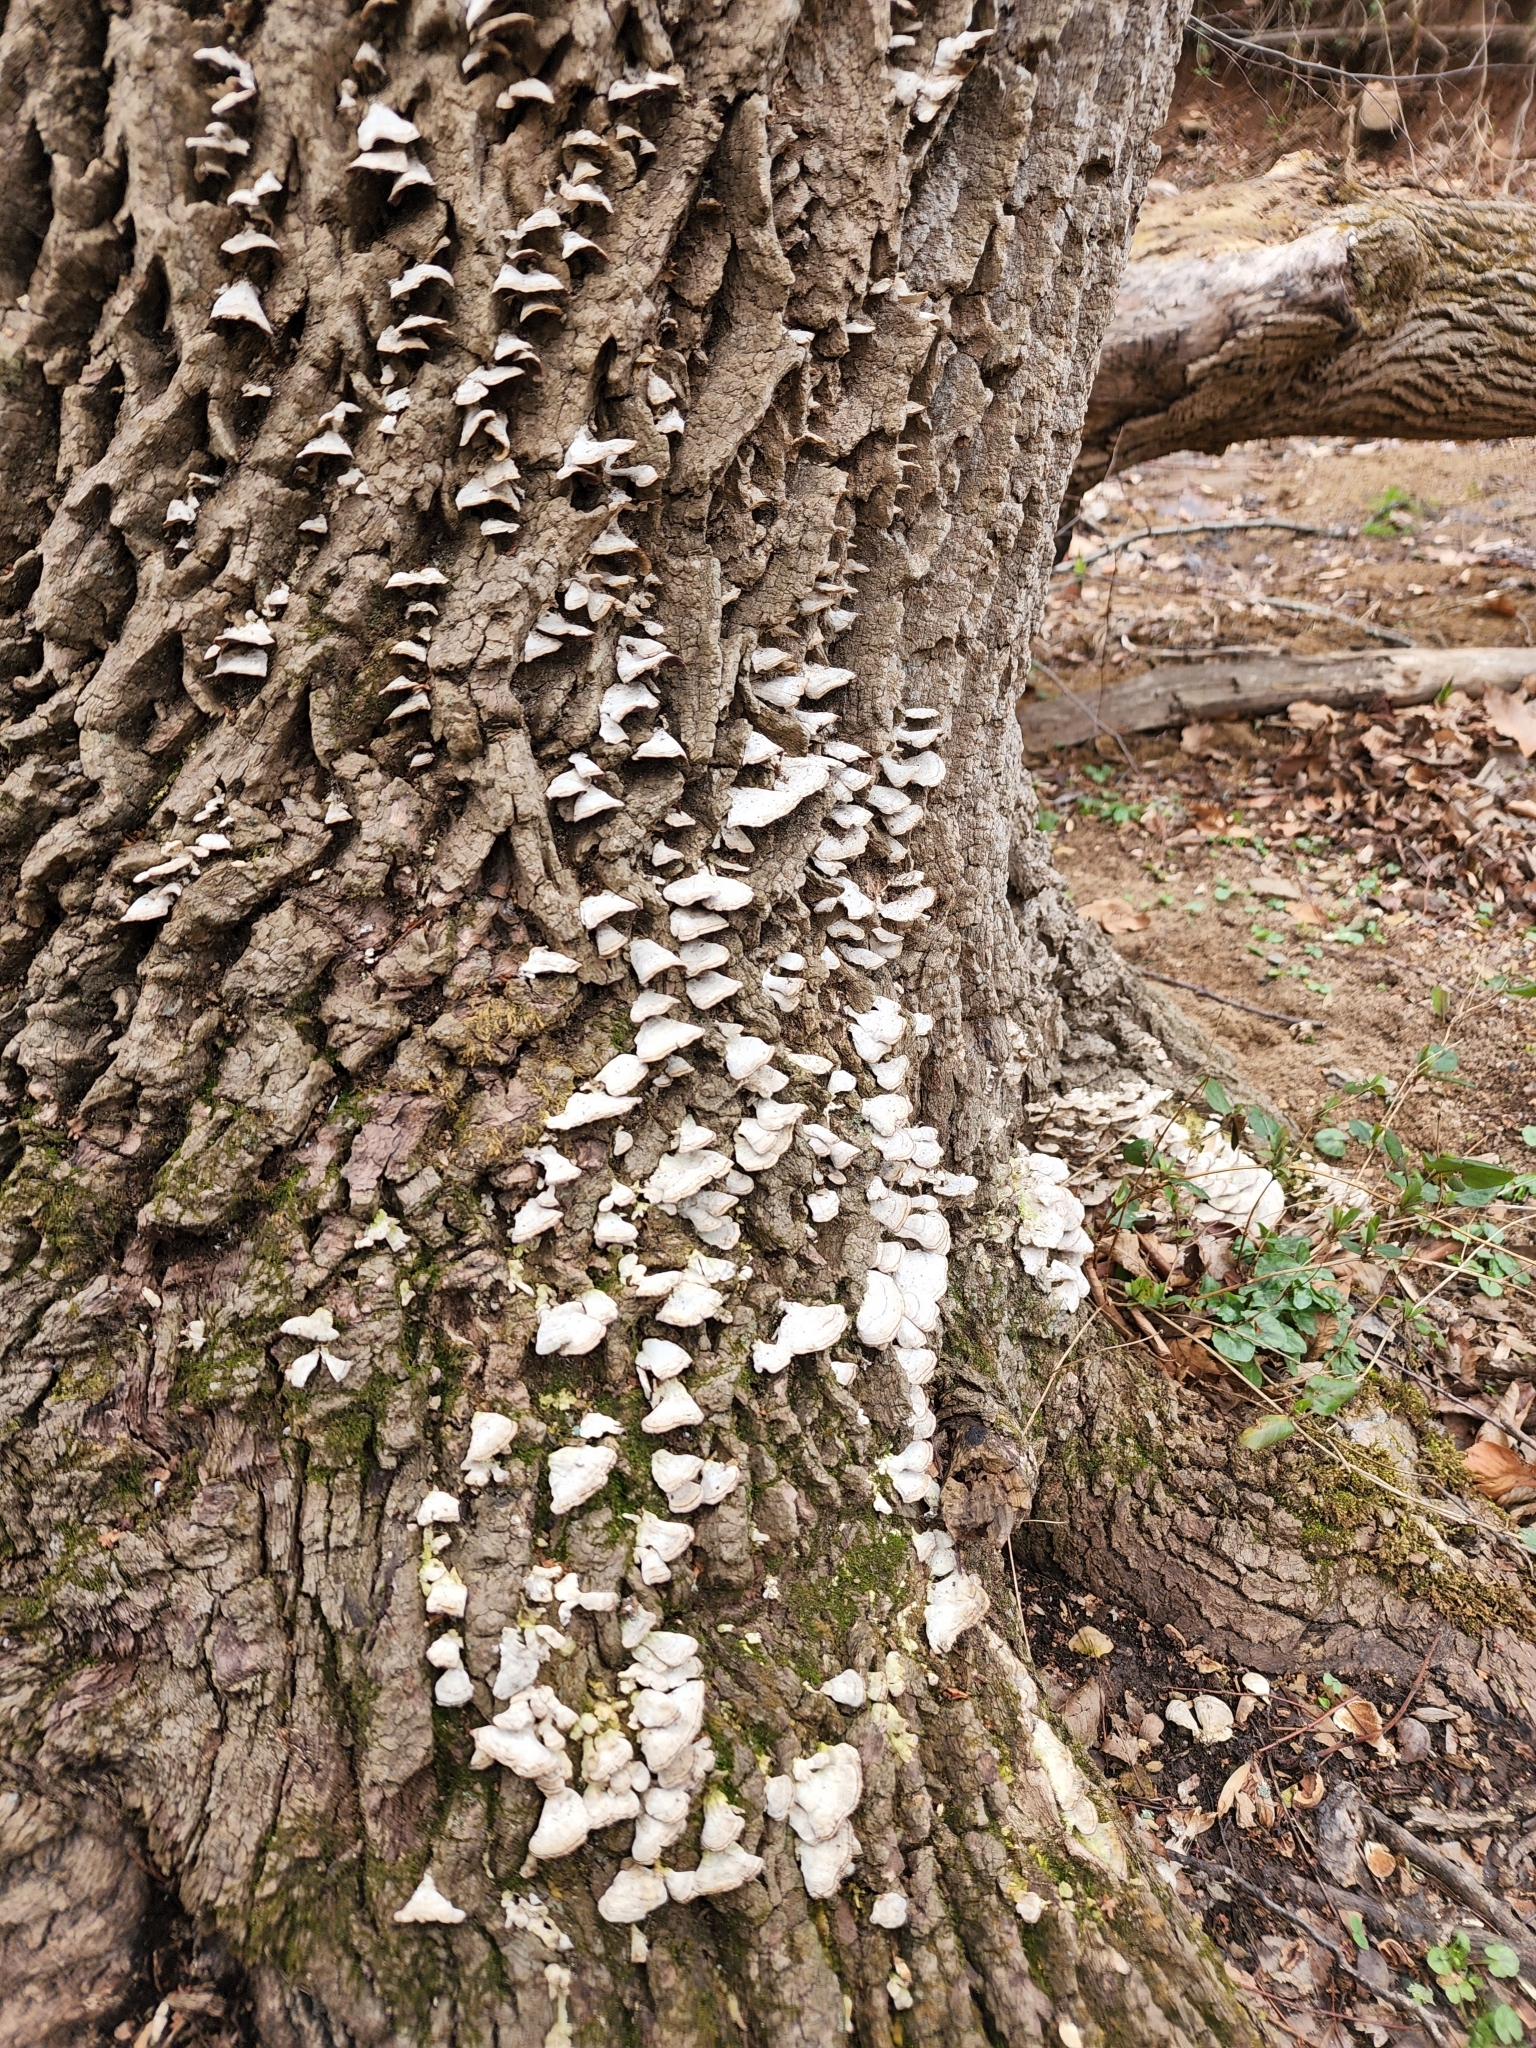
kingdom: Fungi
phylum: Basidiomycota
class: Agaricomycetes
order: Hymenochaetales
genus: Trichaptum
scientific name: Trichaptum biforme
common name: Violet-toothed polypore
